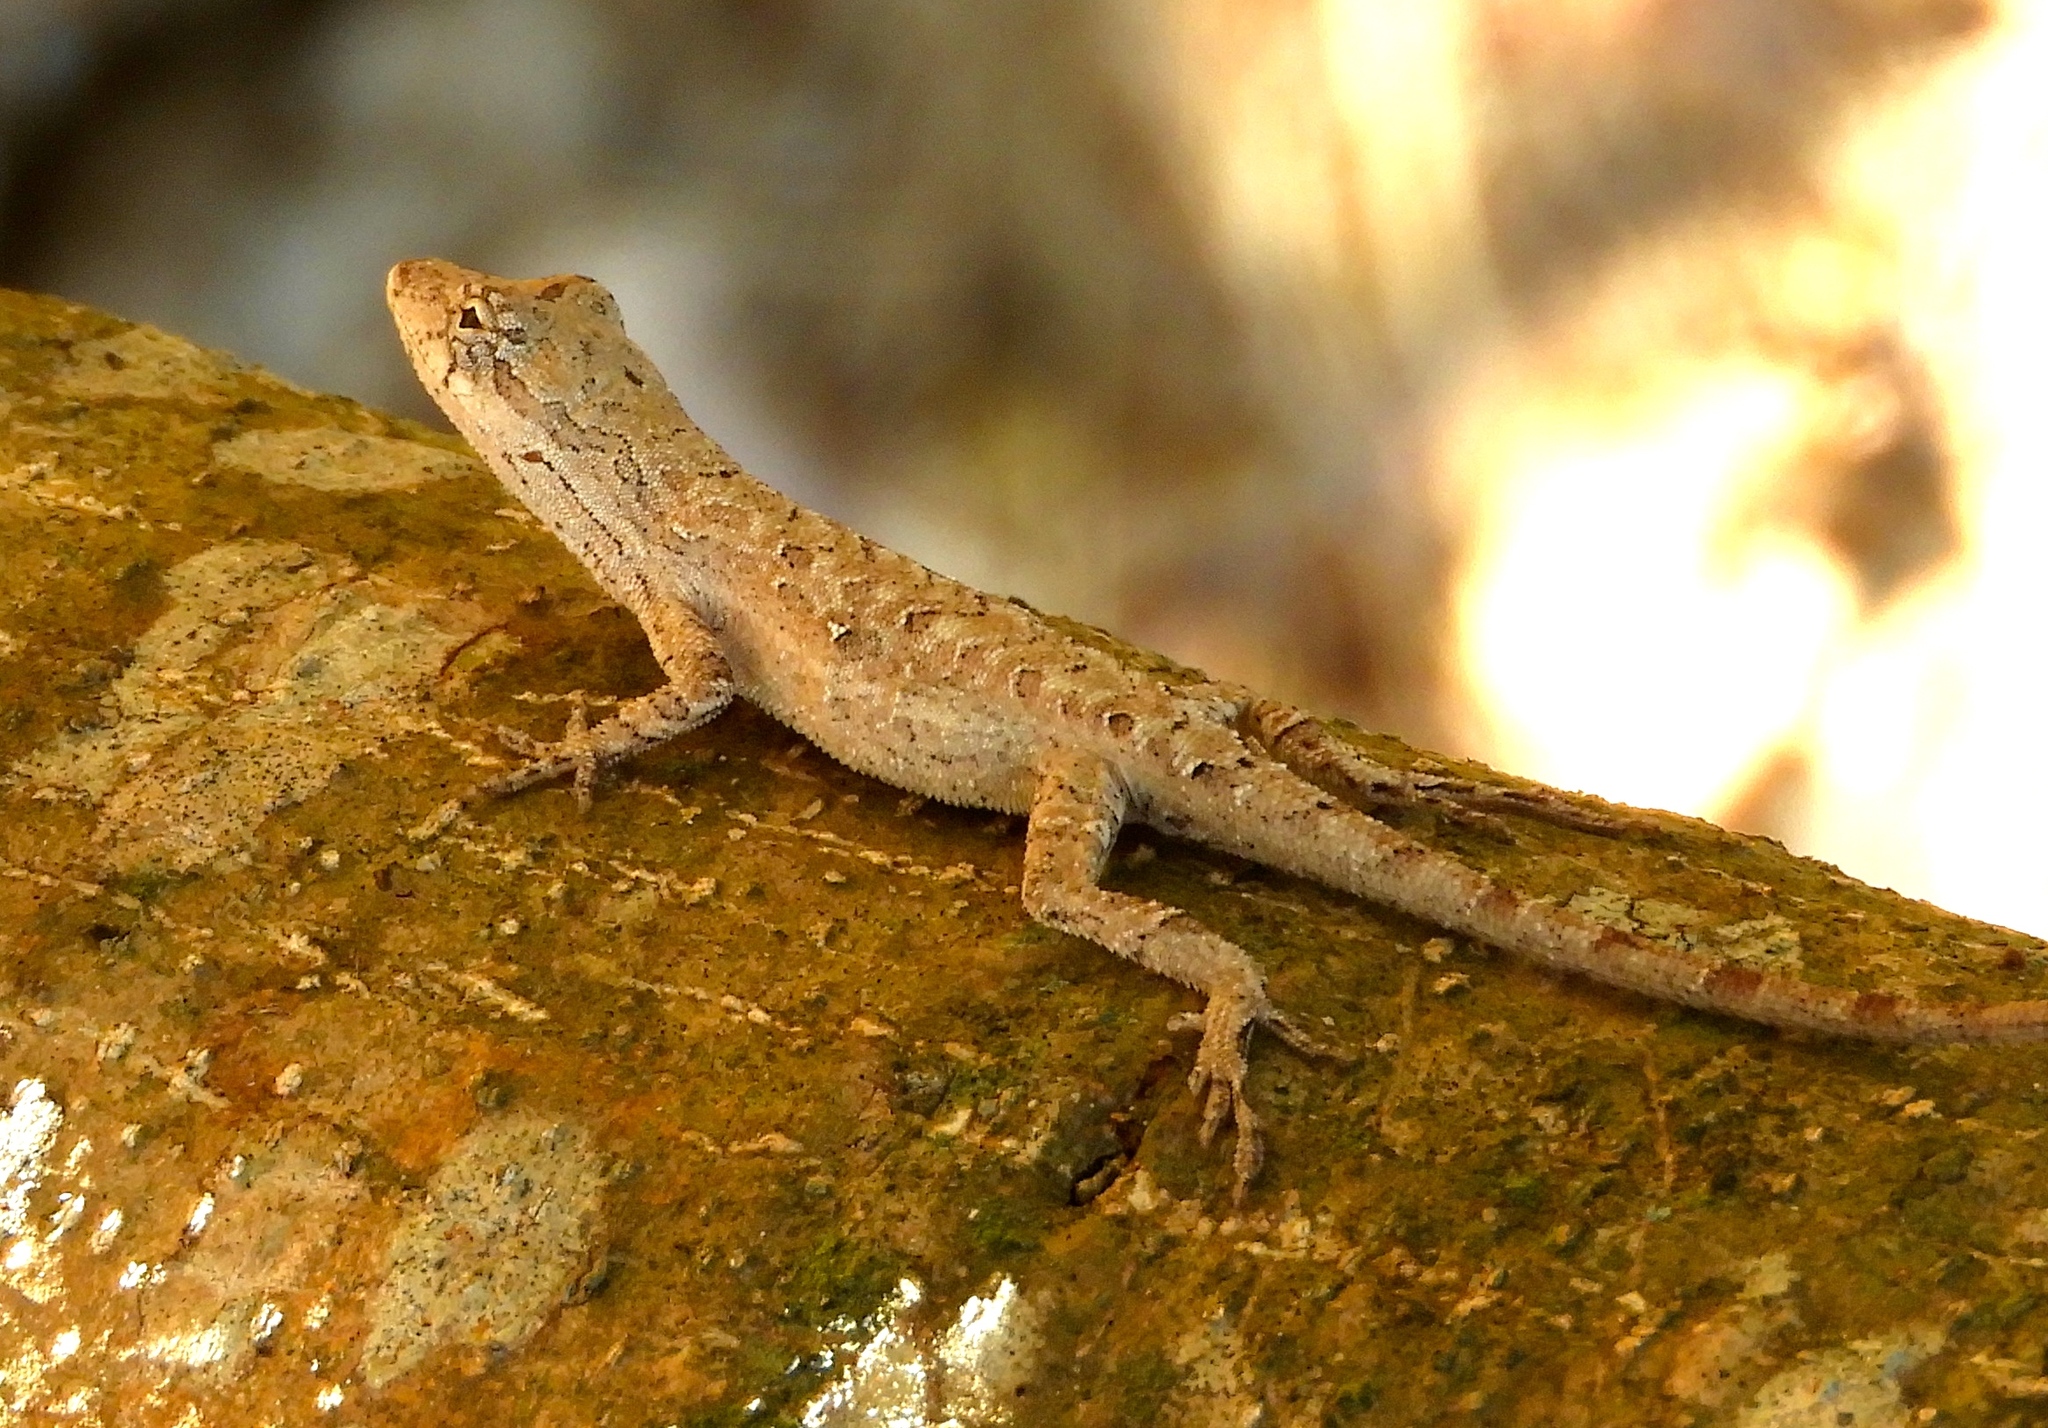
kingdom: Animalia
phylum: Chordata
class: Squamata
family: Dactyloidae
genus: Anolis
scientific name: Anolis nebulosus
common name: Clouded anole
